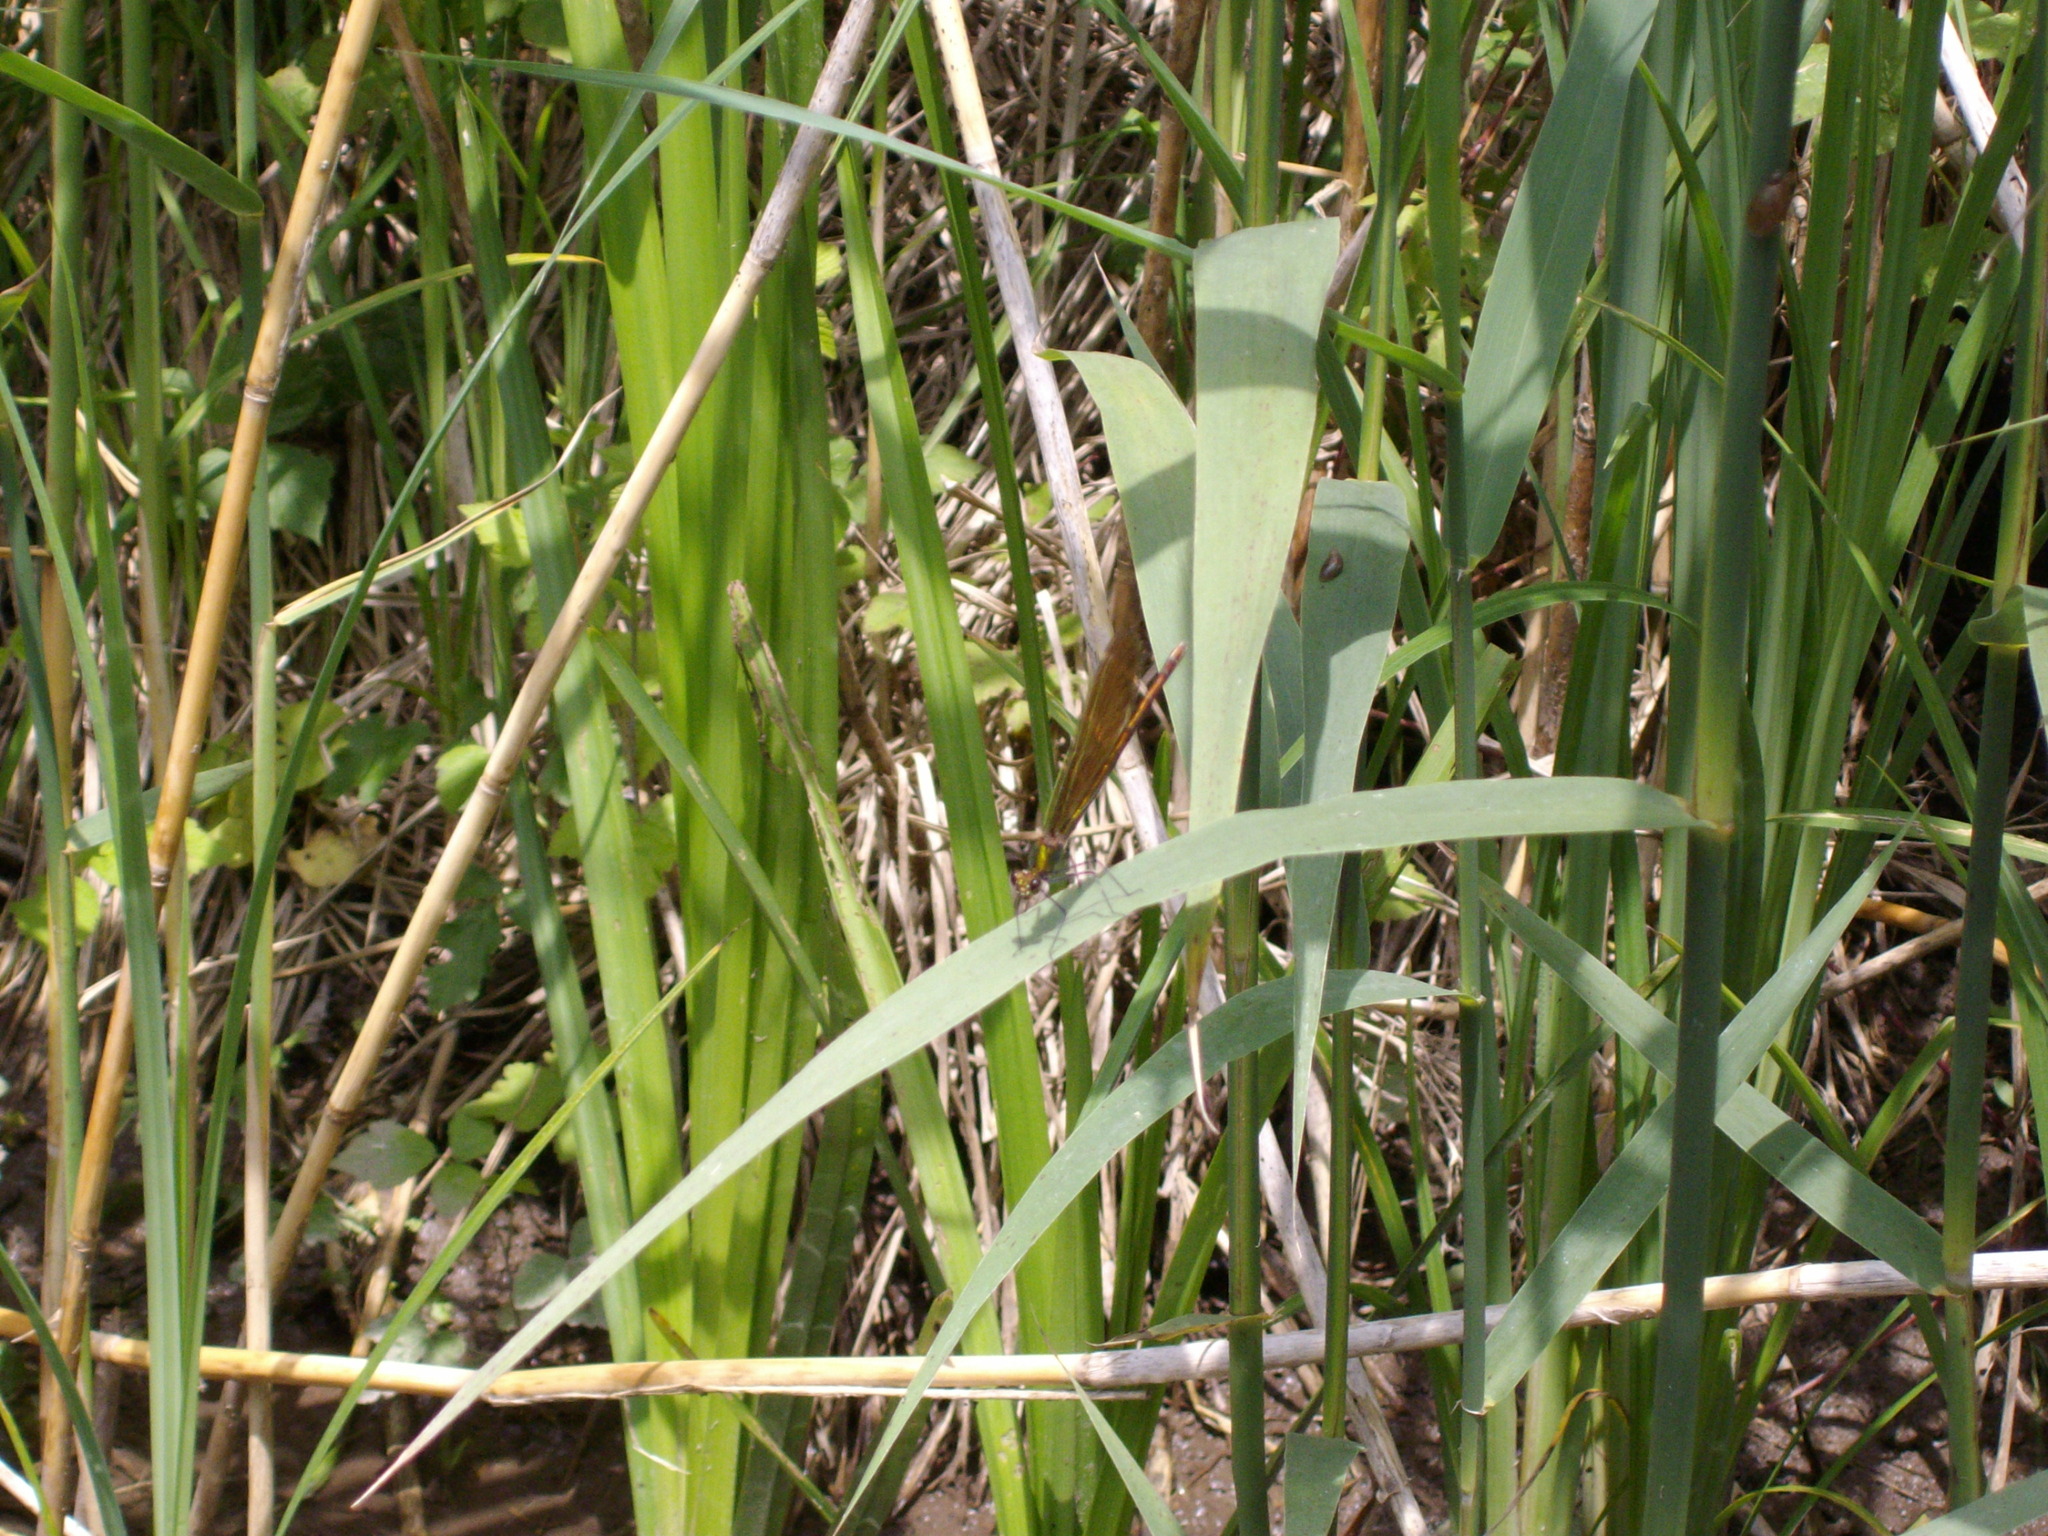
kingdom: Animalia
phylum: Arthropoda
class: Insecta
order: Odonata
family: Calopterygidae
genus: Calopteryx
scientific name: Calopteryx virgo
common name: Beautiful demoiselle
